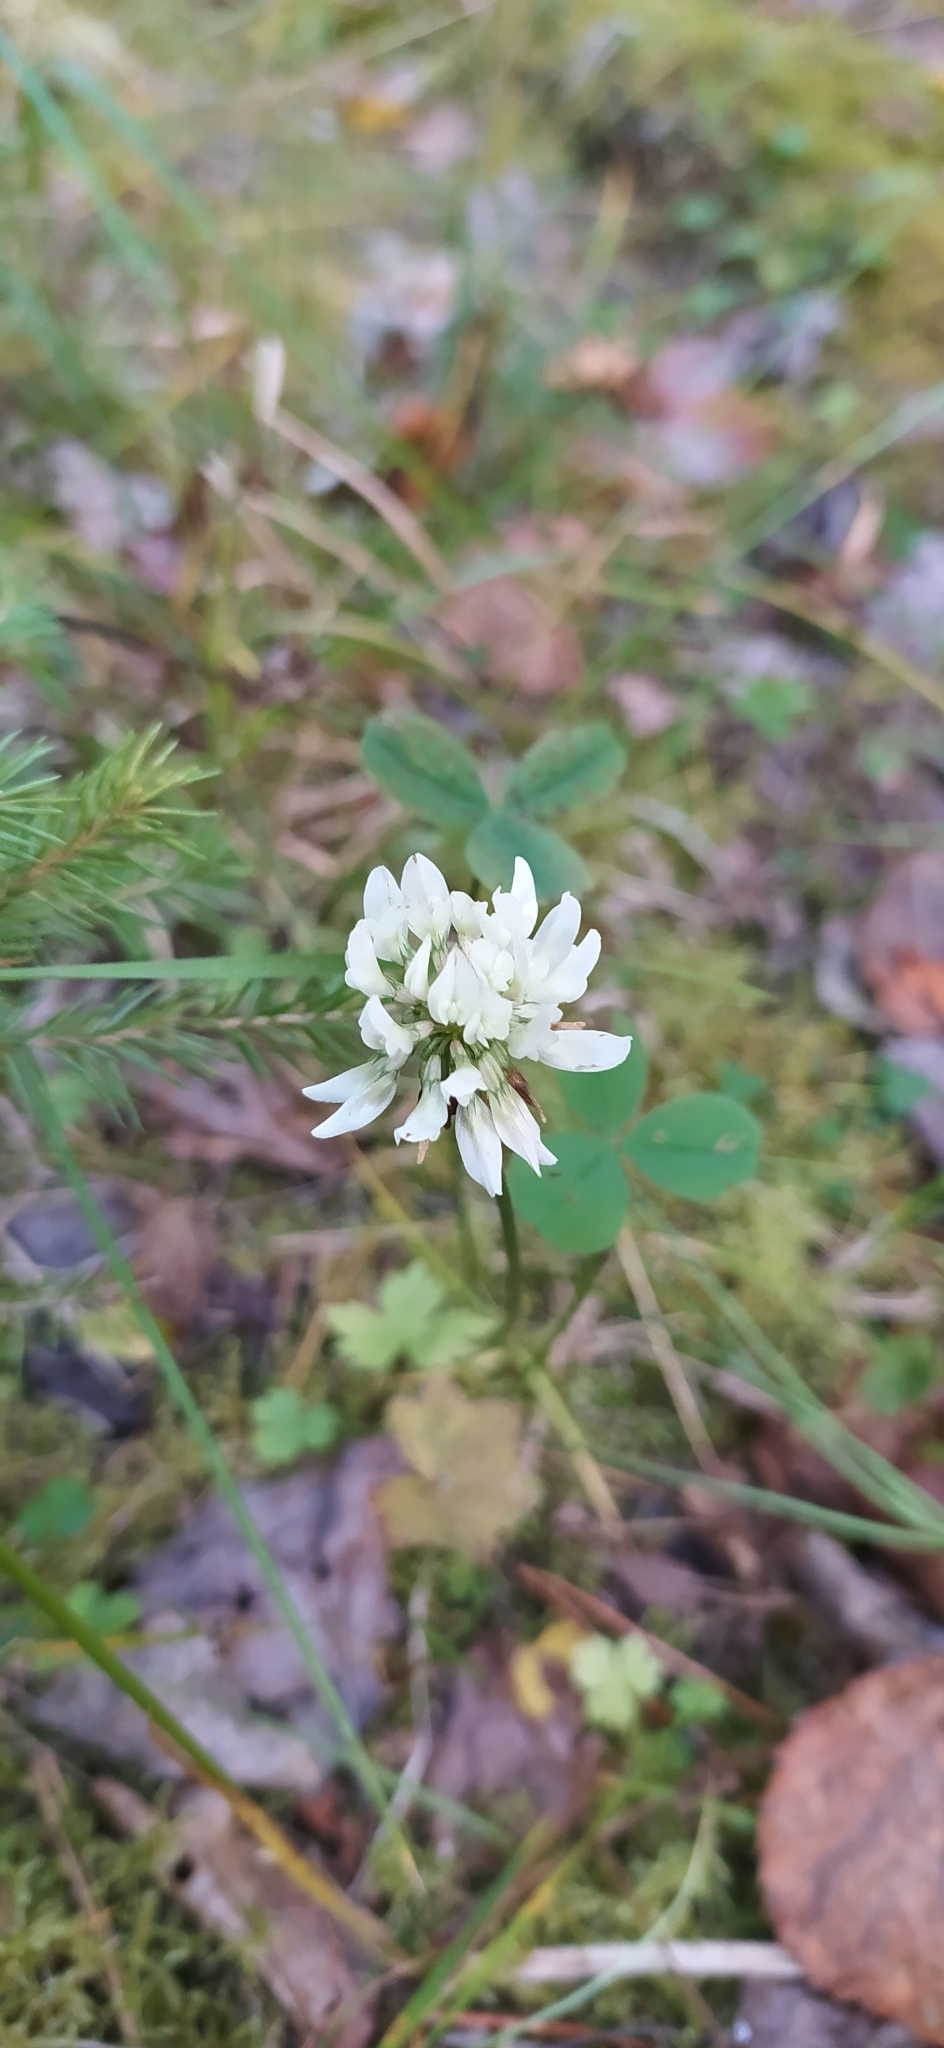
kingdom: Plantae
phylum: Tracheophyta
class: Magnoliopsida
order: Fabales
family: Fabaceae
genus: Trifolium
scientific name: Trifolium repens
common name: White clover
